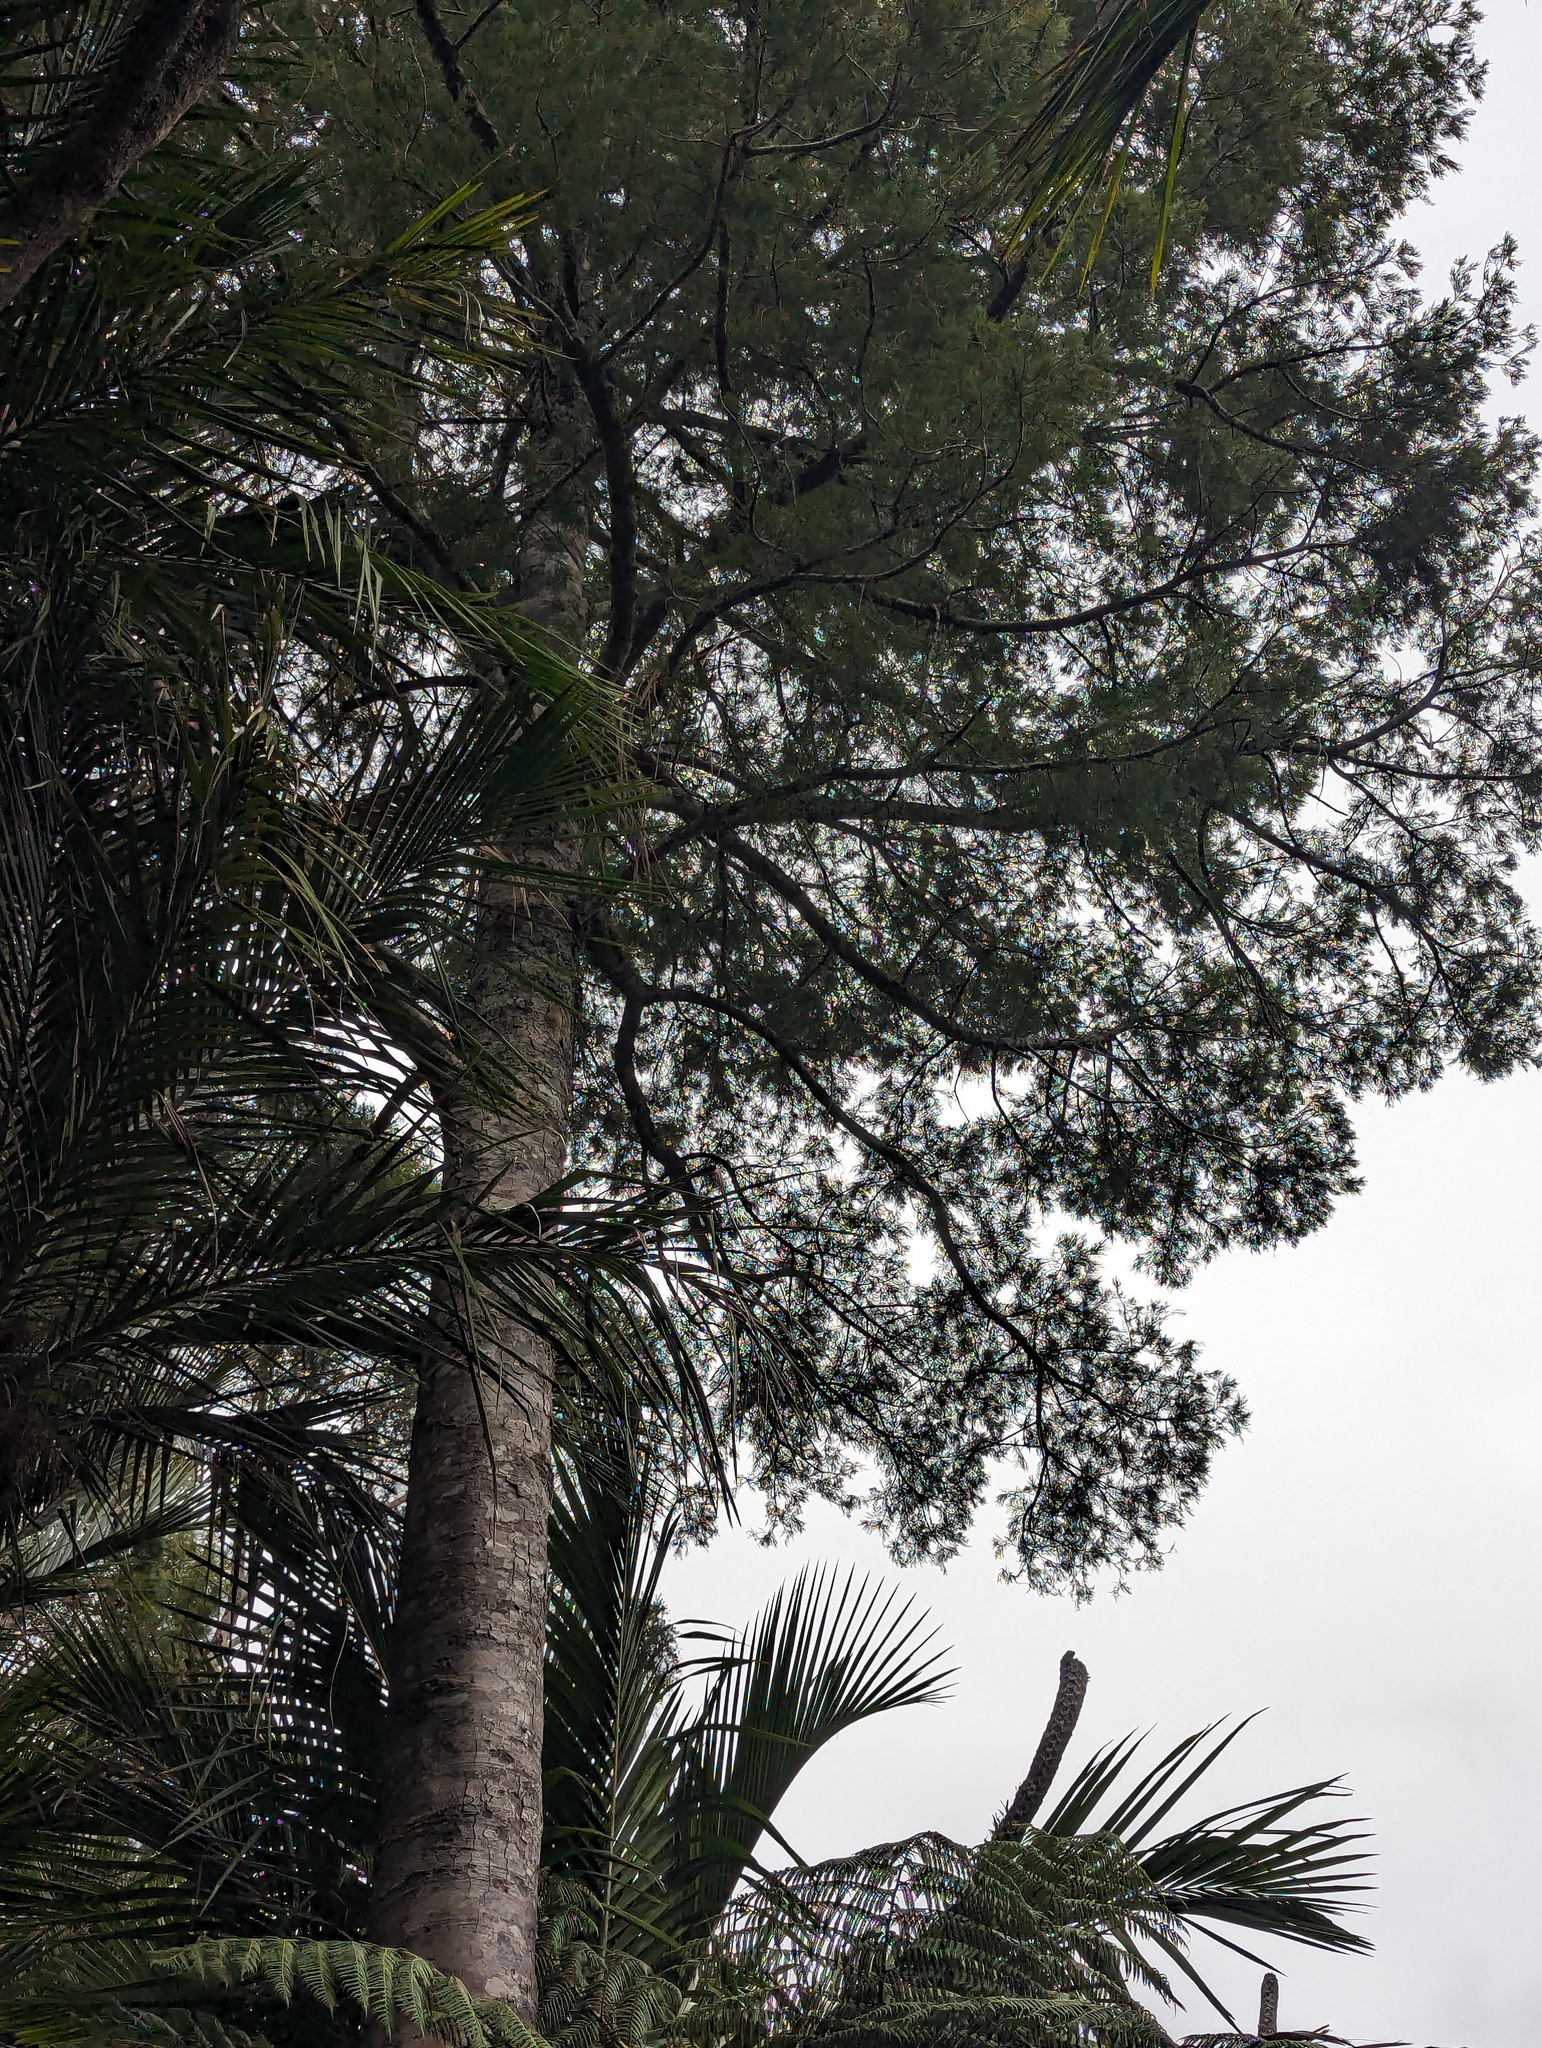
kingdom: Plantae
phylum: Tracheophyta
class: Pinopsida
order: Pinales
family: Podocarpaceae
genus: Dacrycarpus
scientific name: Dacrycarpus dacrydioides
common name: White pine
